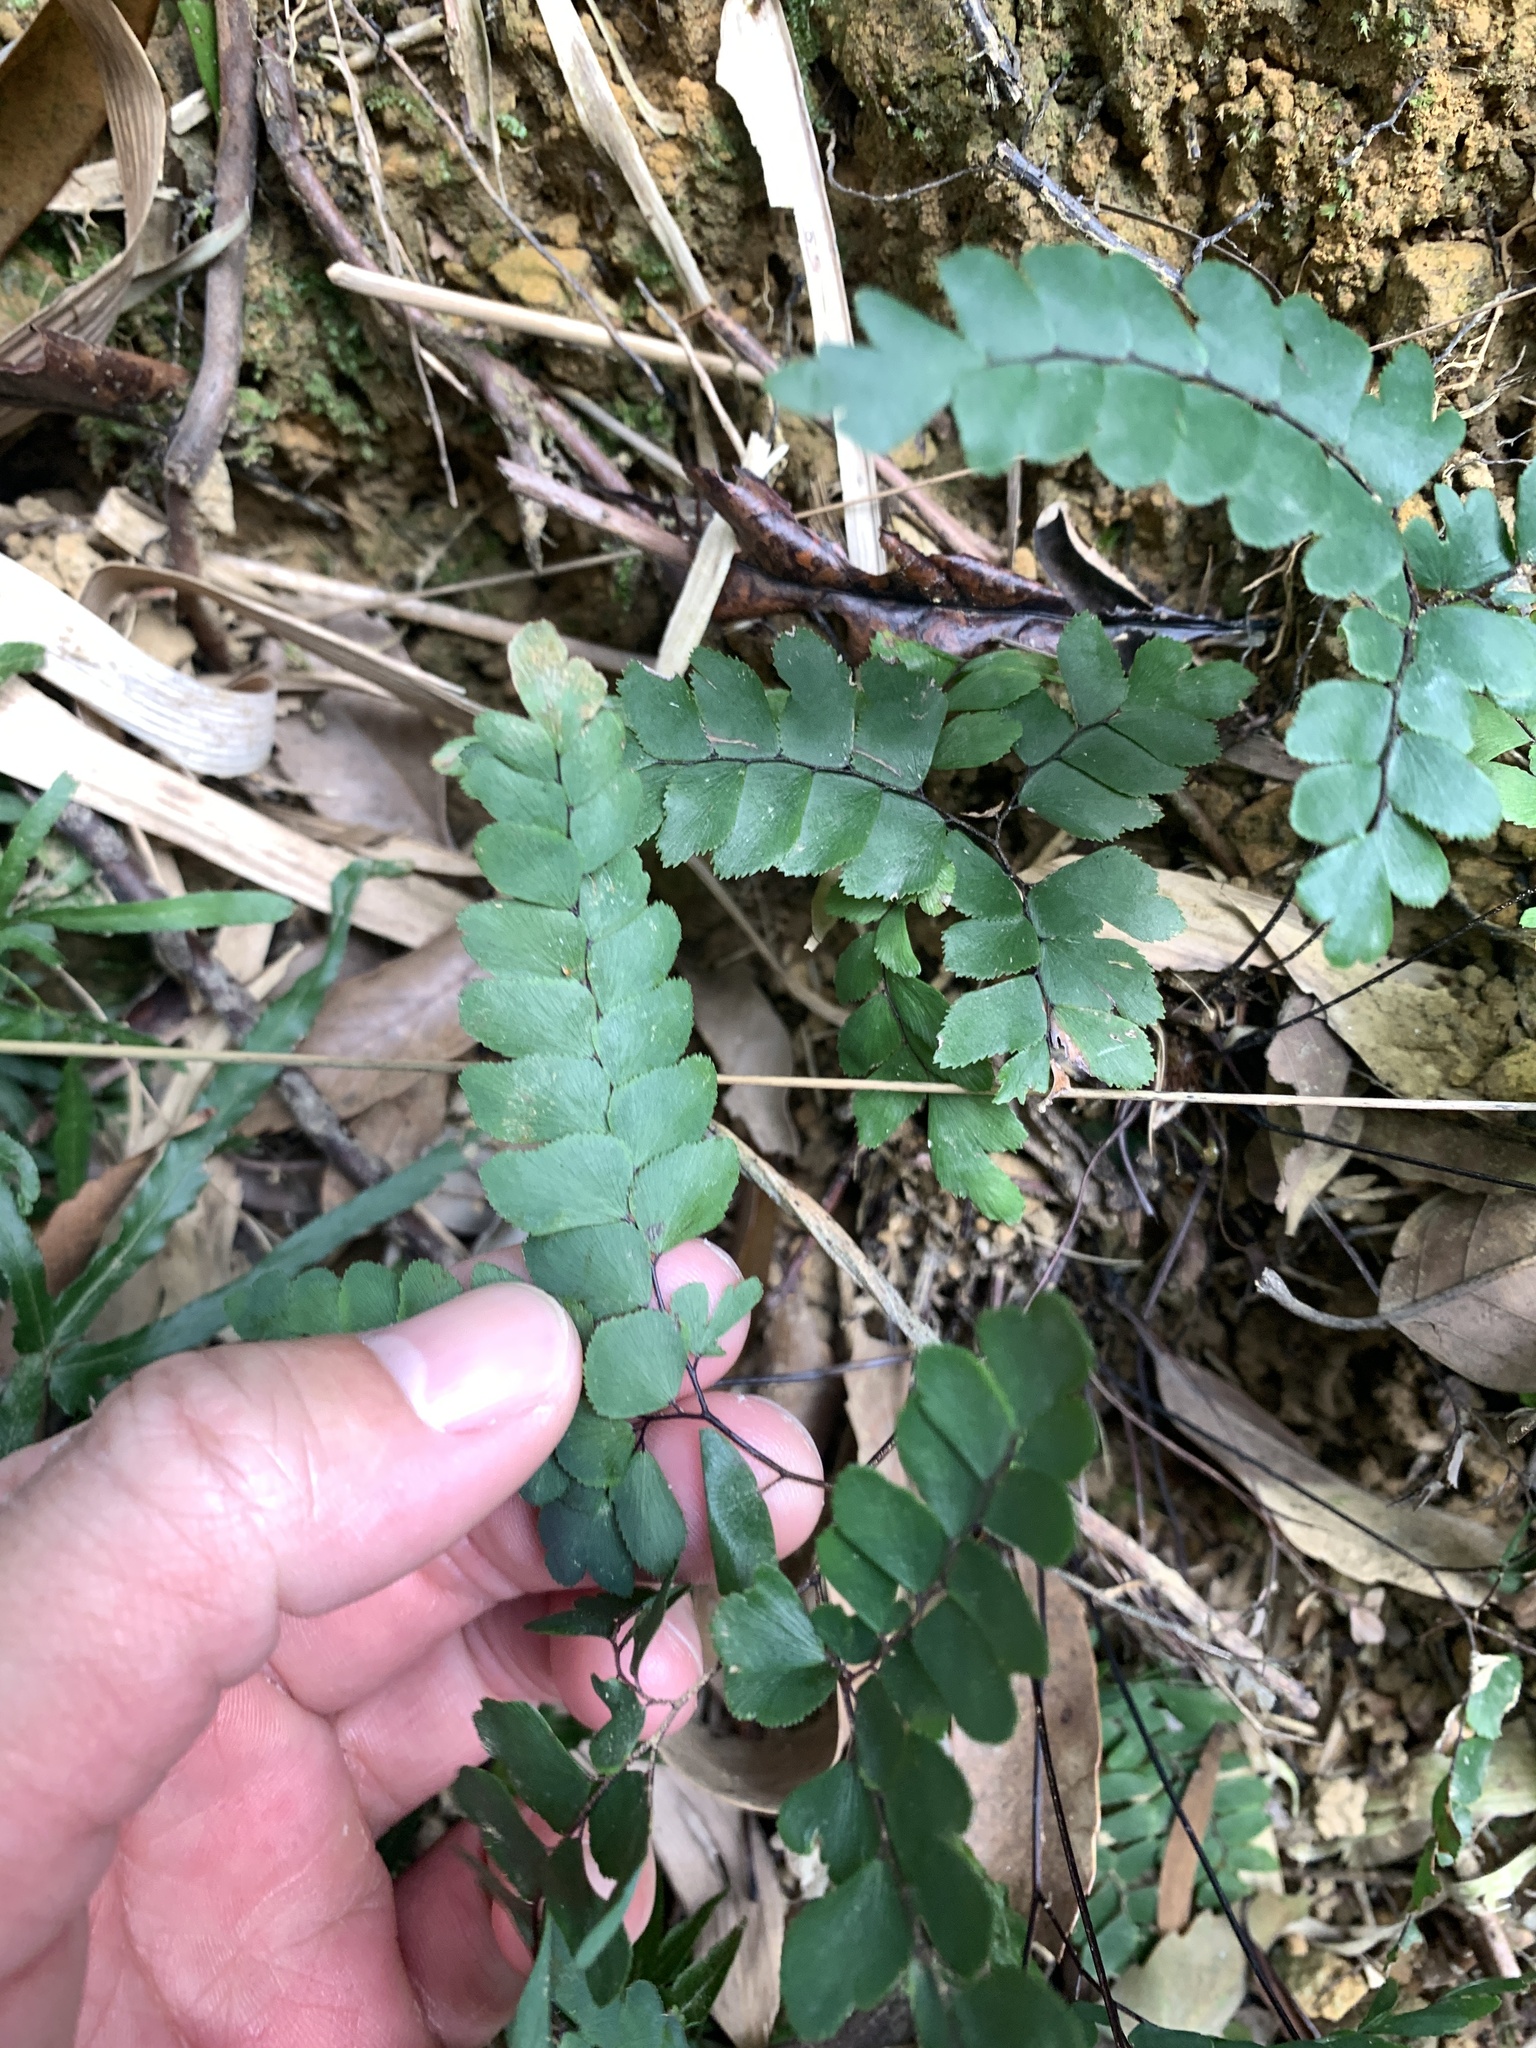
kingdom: Plantae
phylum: Tracheophyta
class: Polypodiopsida
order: Polypodiales
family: Pteridaceae
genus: Adiantum
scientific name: Adiantum flabellulatum
